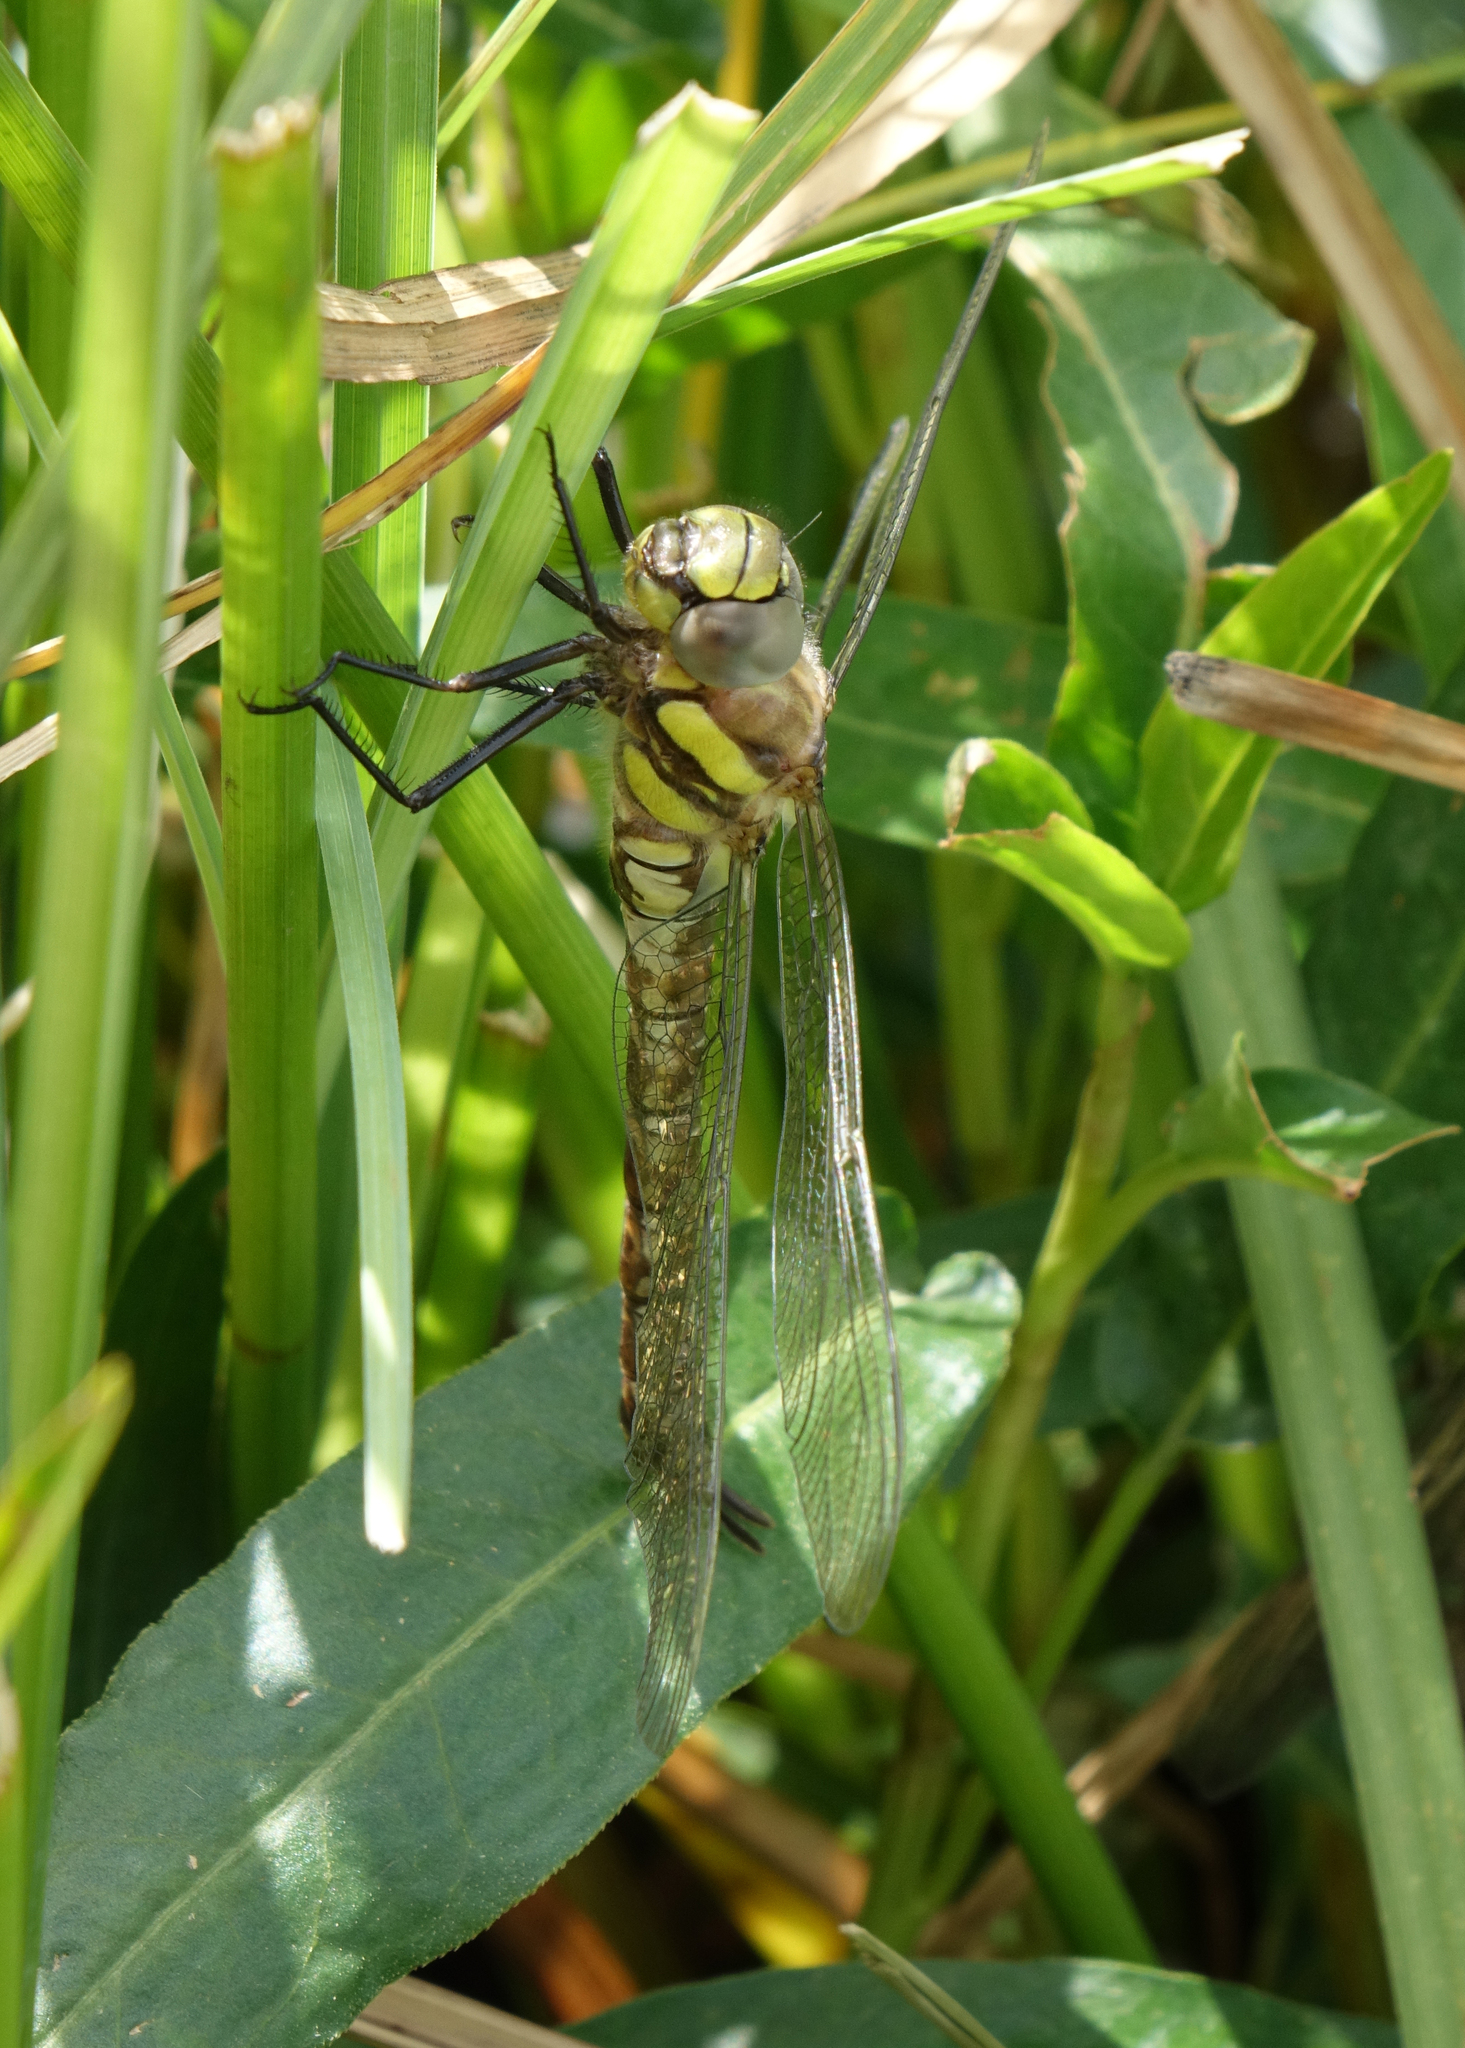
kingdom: Animalia
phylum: Arthropoda
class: Insecta
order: Odonata
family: Aeshnidae
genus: Aeshna
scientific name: Aeshna juncea
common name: Moorland hawker
